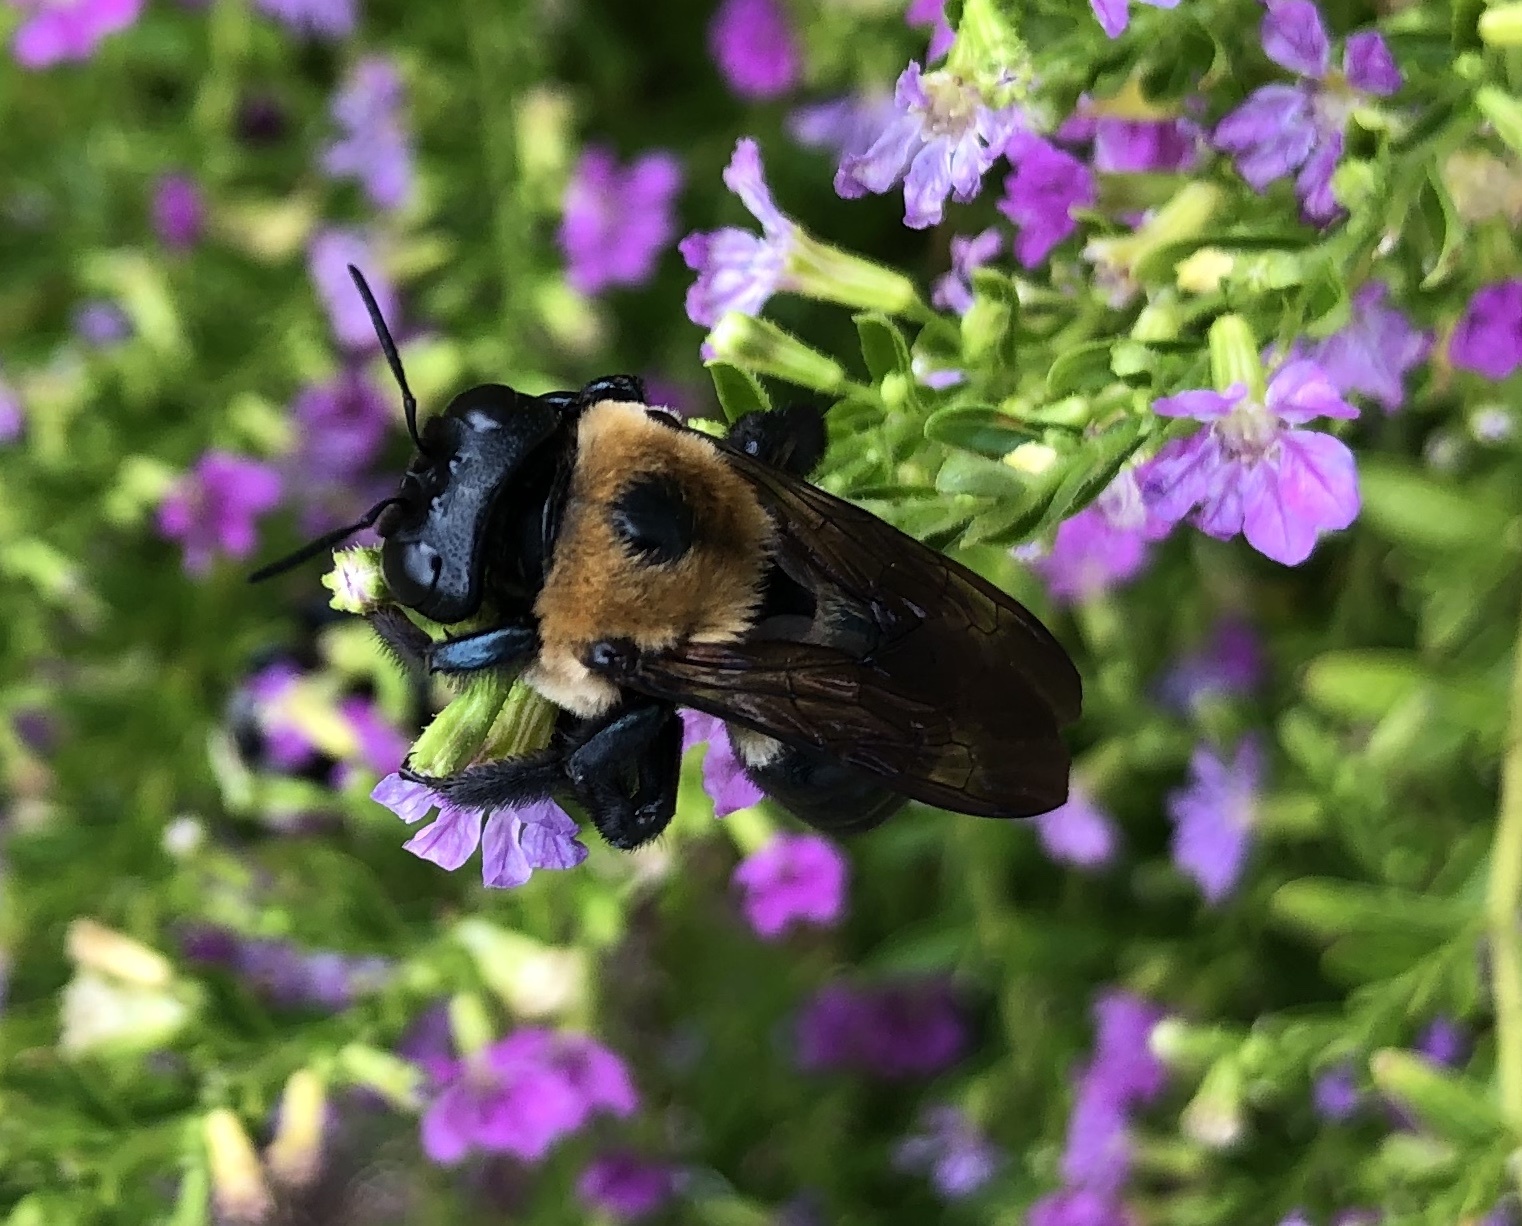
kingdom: Animalia
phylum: Arthropoda
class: Insecta
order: Hymenoptera
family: Apidae
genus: Xylocopa
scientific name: Xylocopa virginica
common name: Carpenter bee
